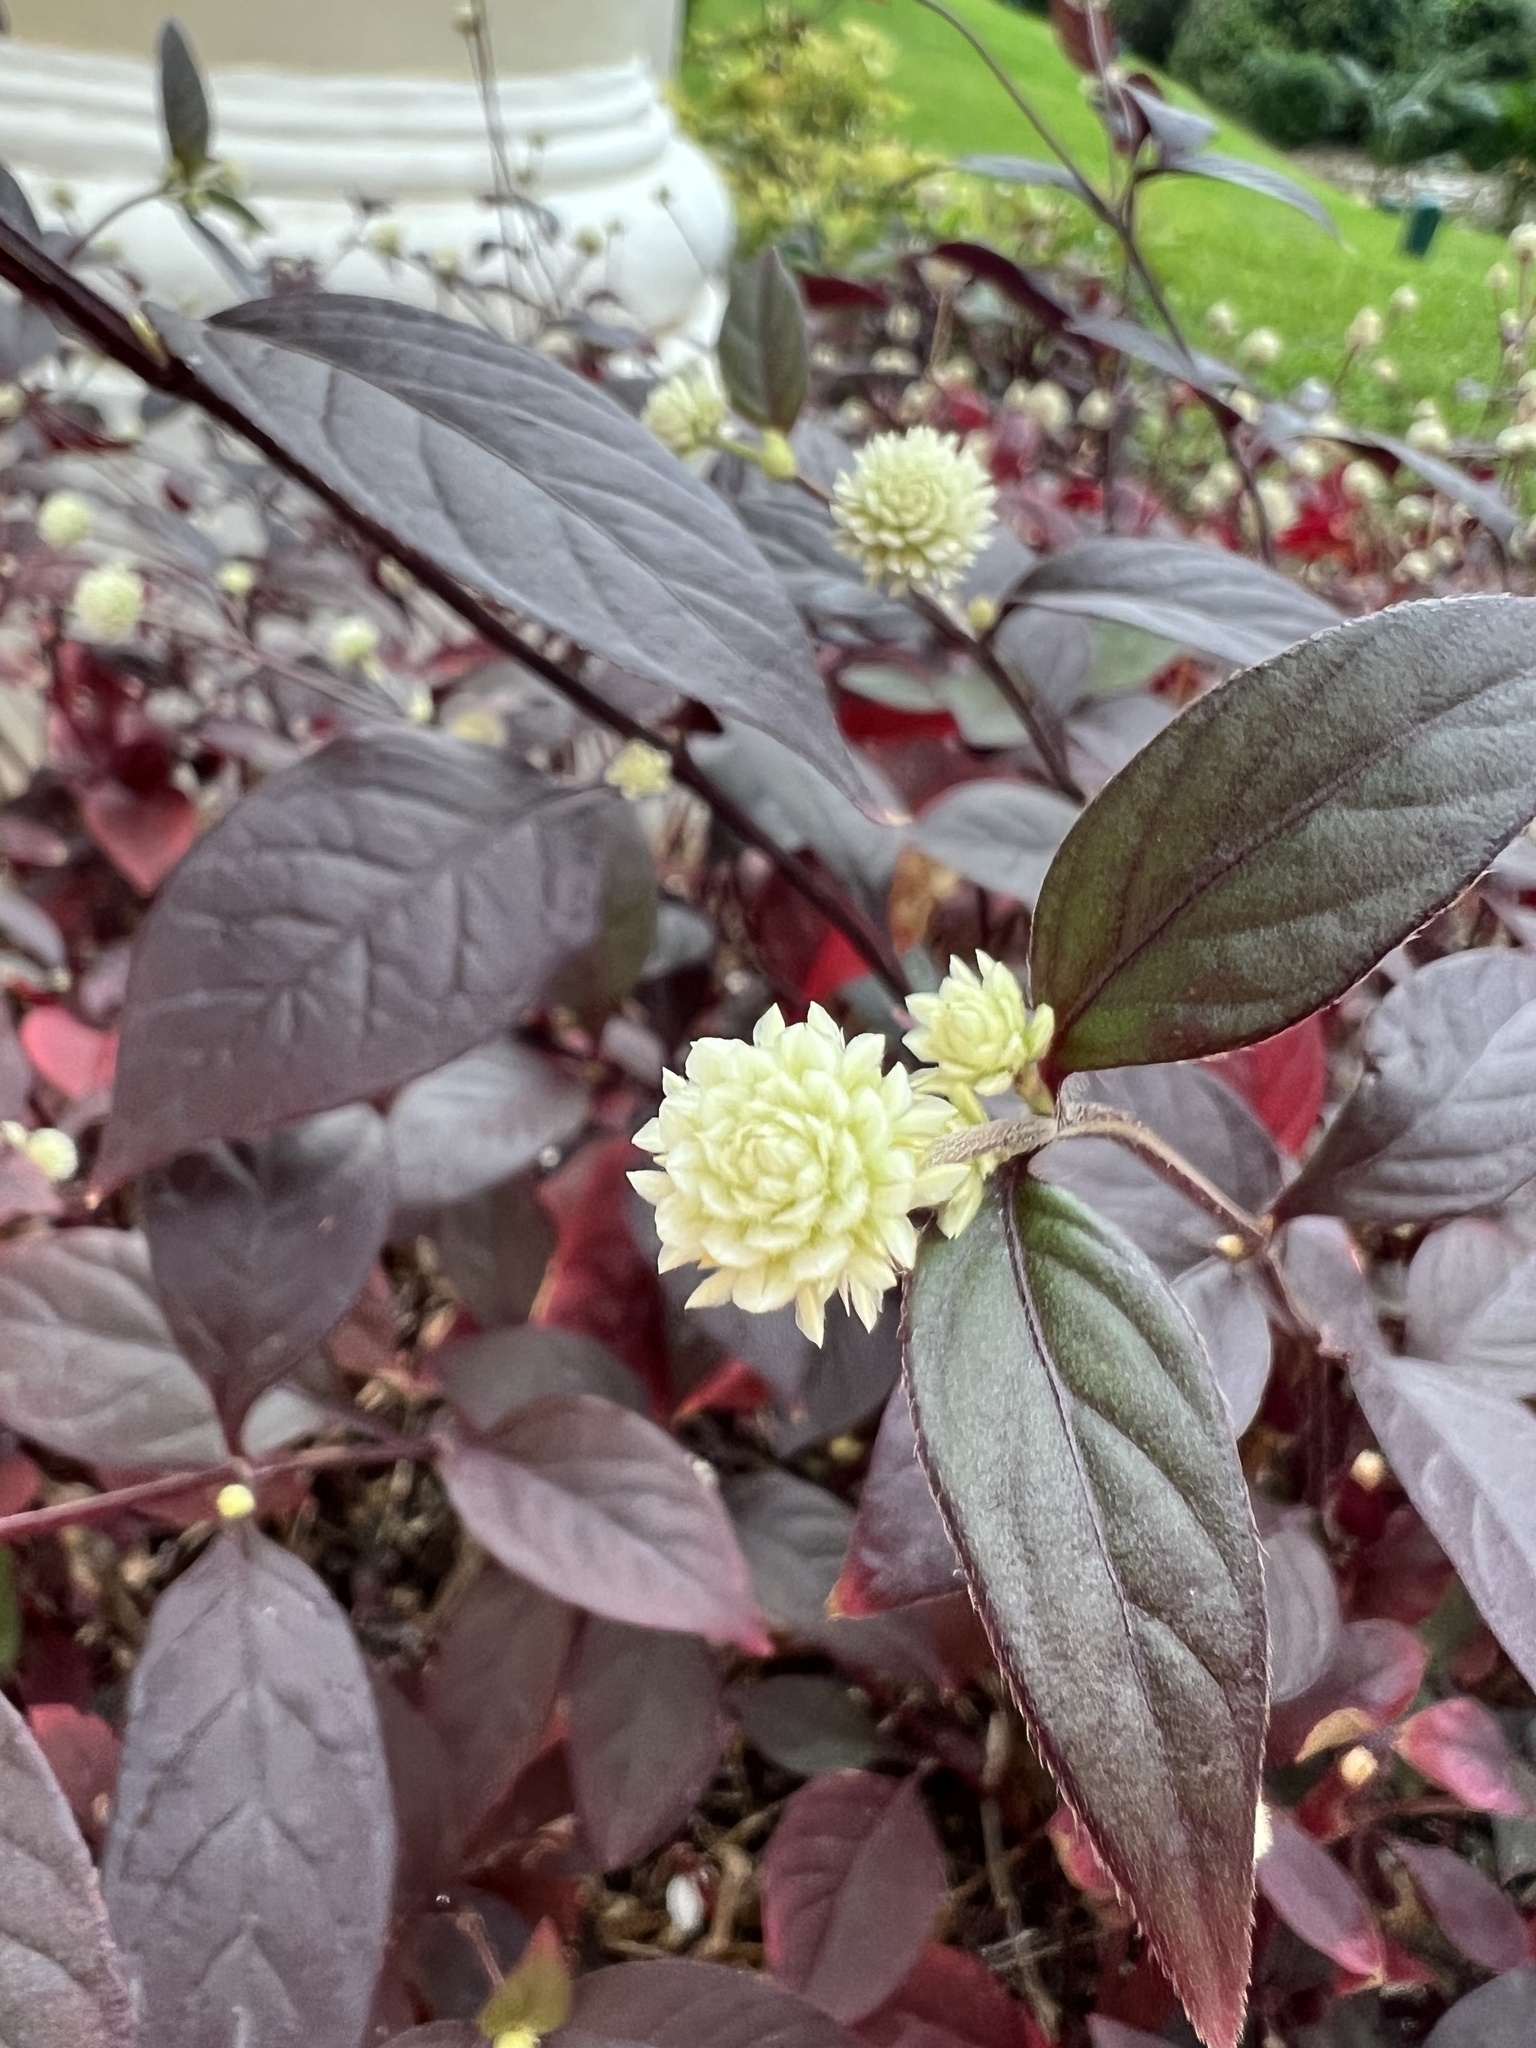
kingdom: Plantae
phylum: Tracheophyta
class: Magnoliopsida
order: Caryophyllales
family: Amaranthaceae
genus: Alternanthera
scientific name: Alternanthera brasiliana
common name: Brazilian joyweed
